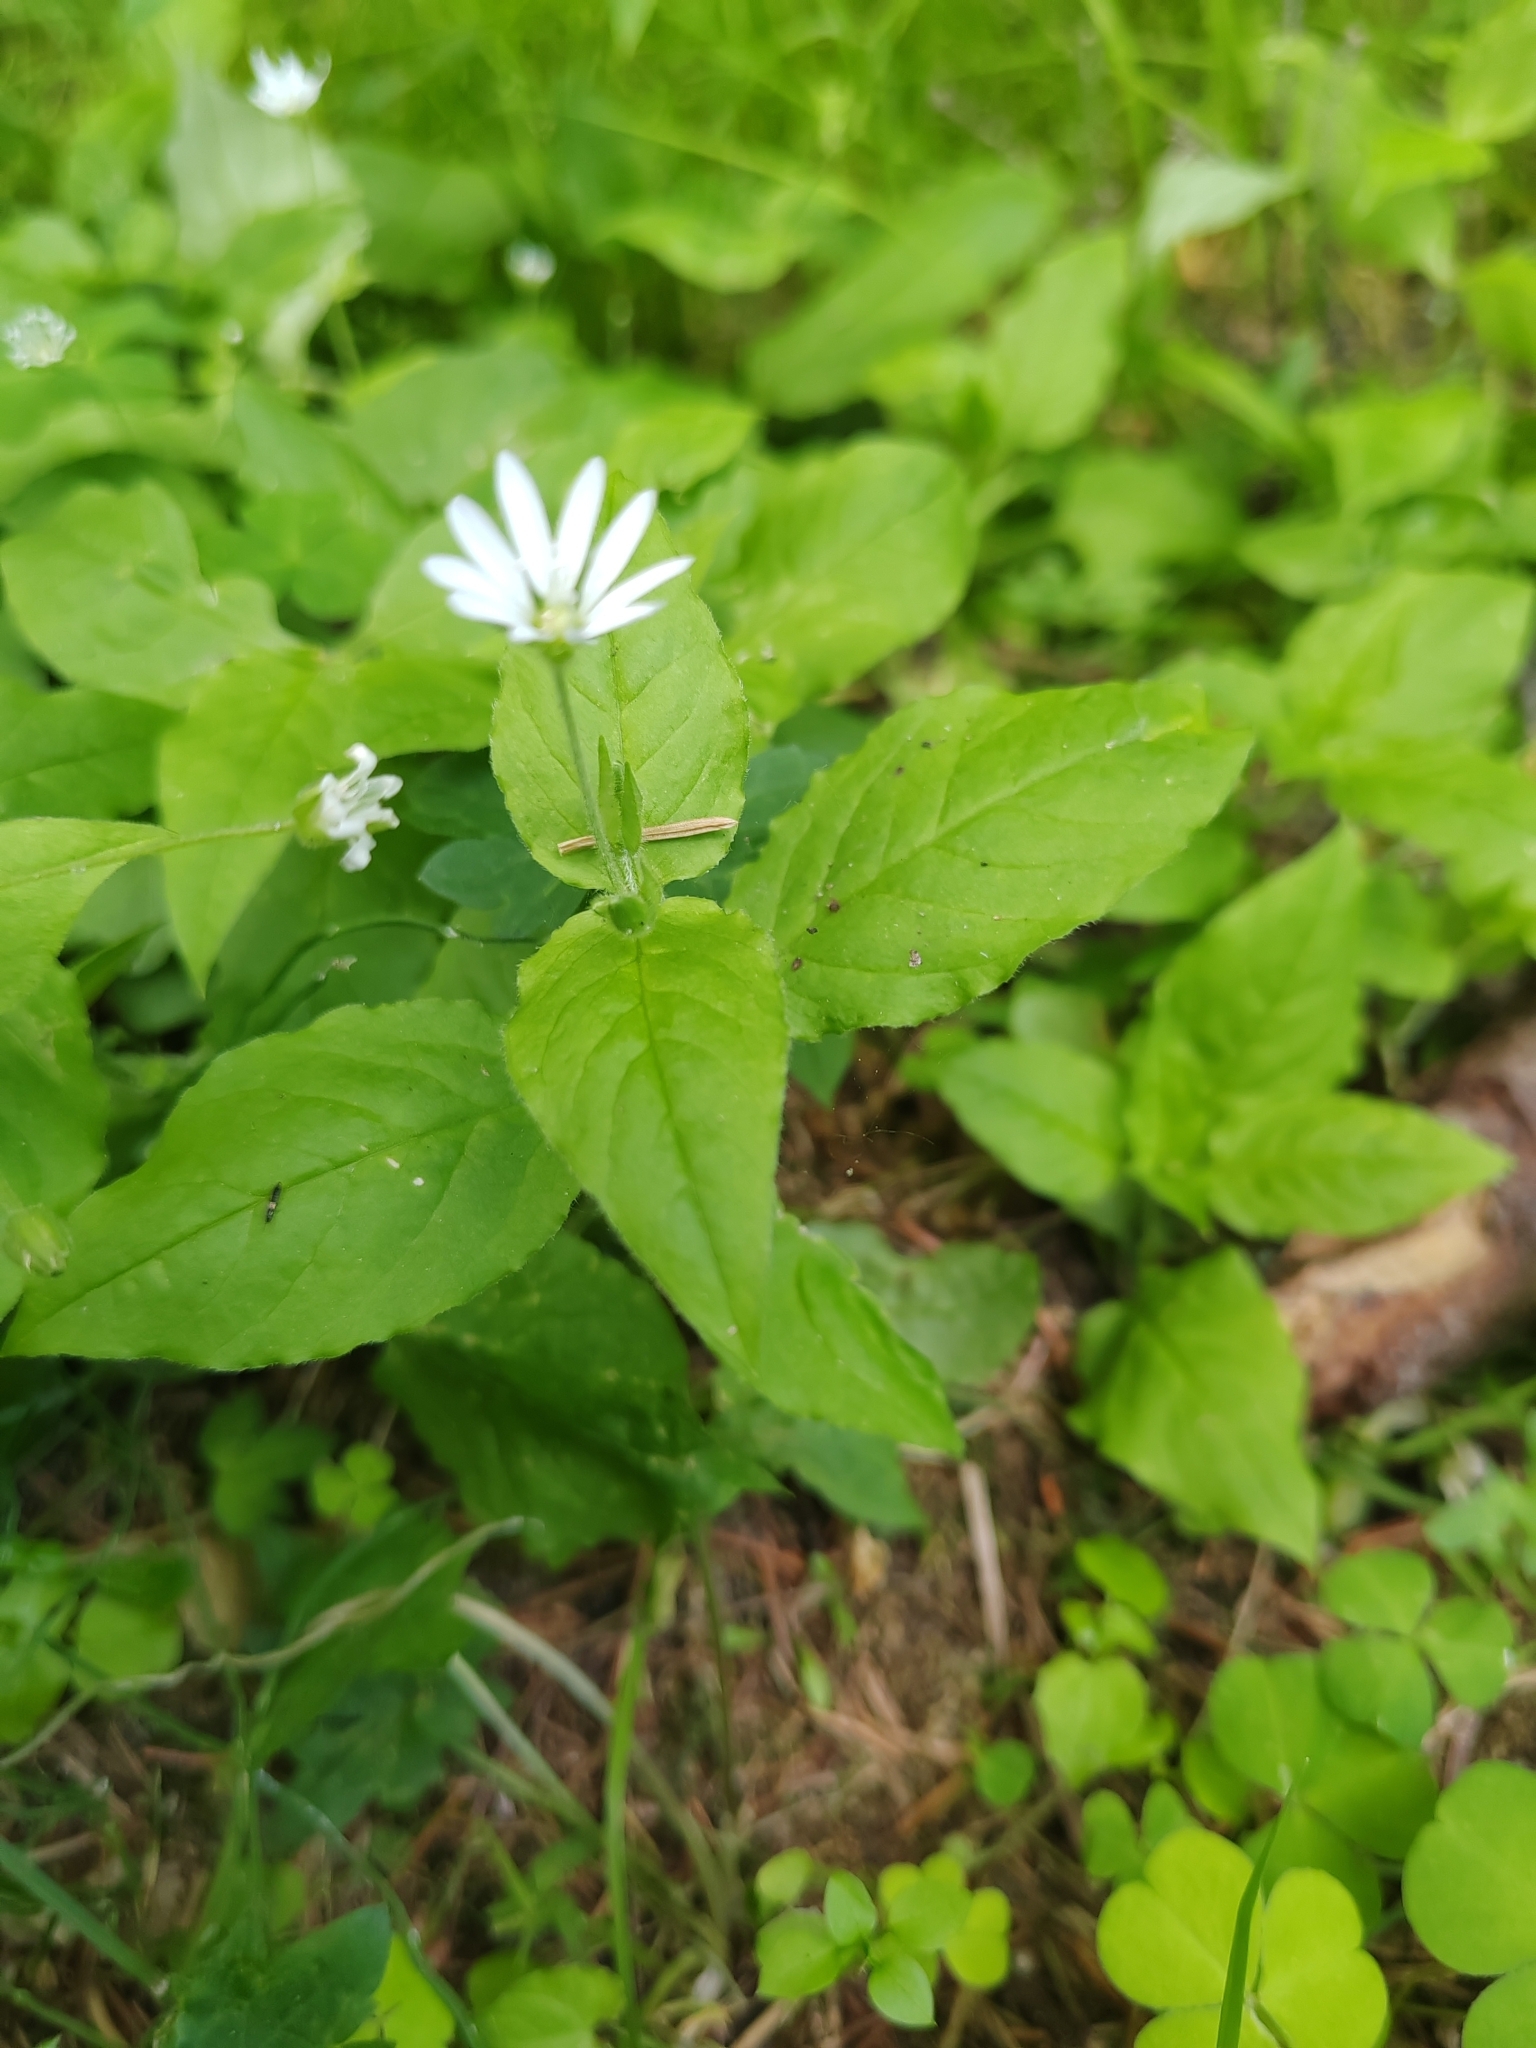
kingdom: Plantae
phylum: Tracheophyta
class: Magnoliopsida
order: Caryophyllales
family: Caryophyllaceae
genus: Stellaria
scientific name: Stellaria bungeana
